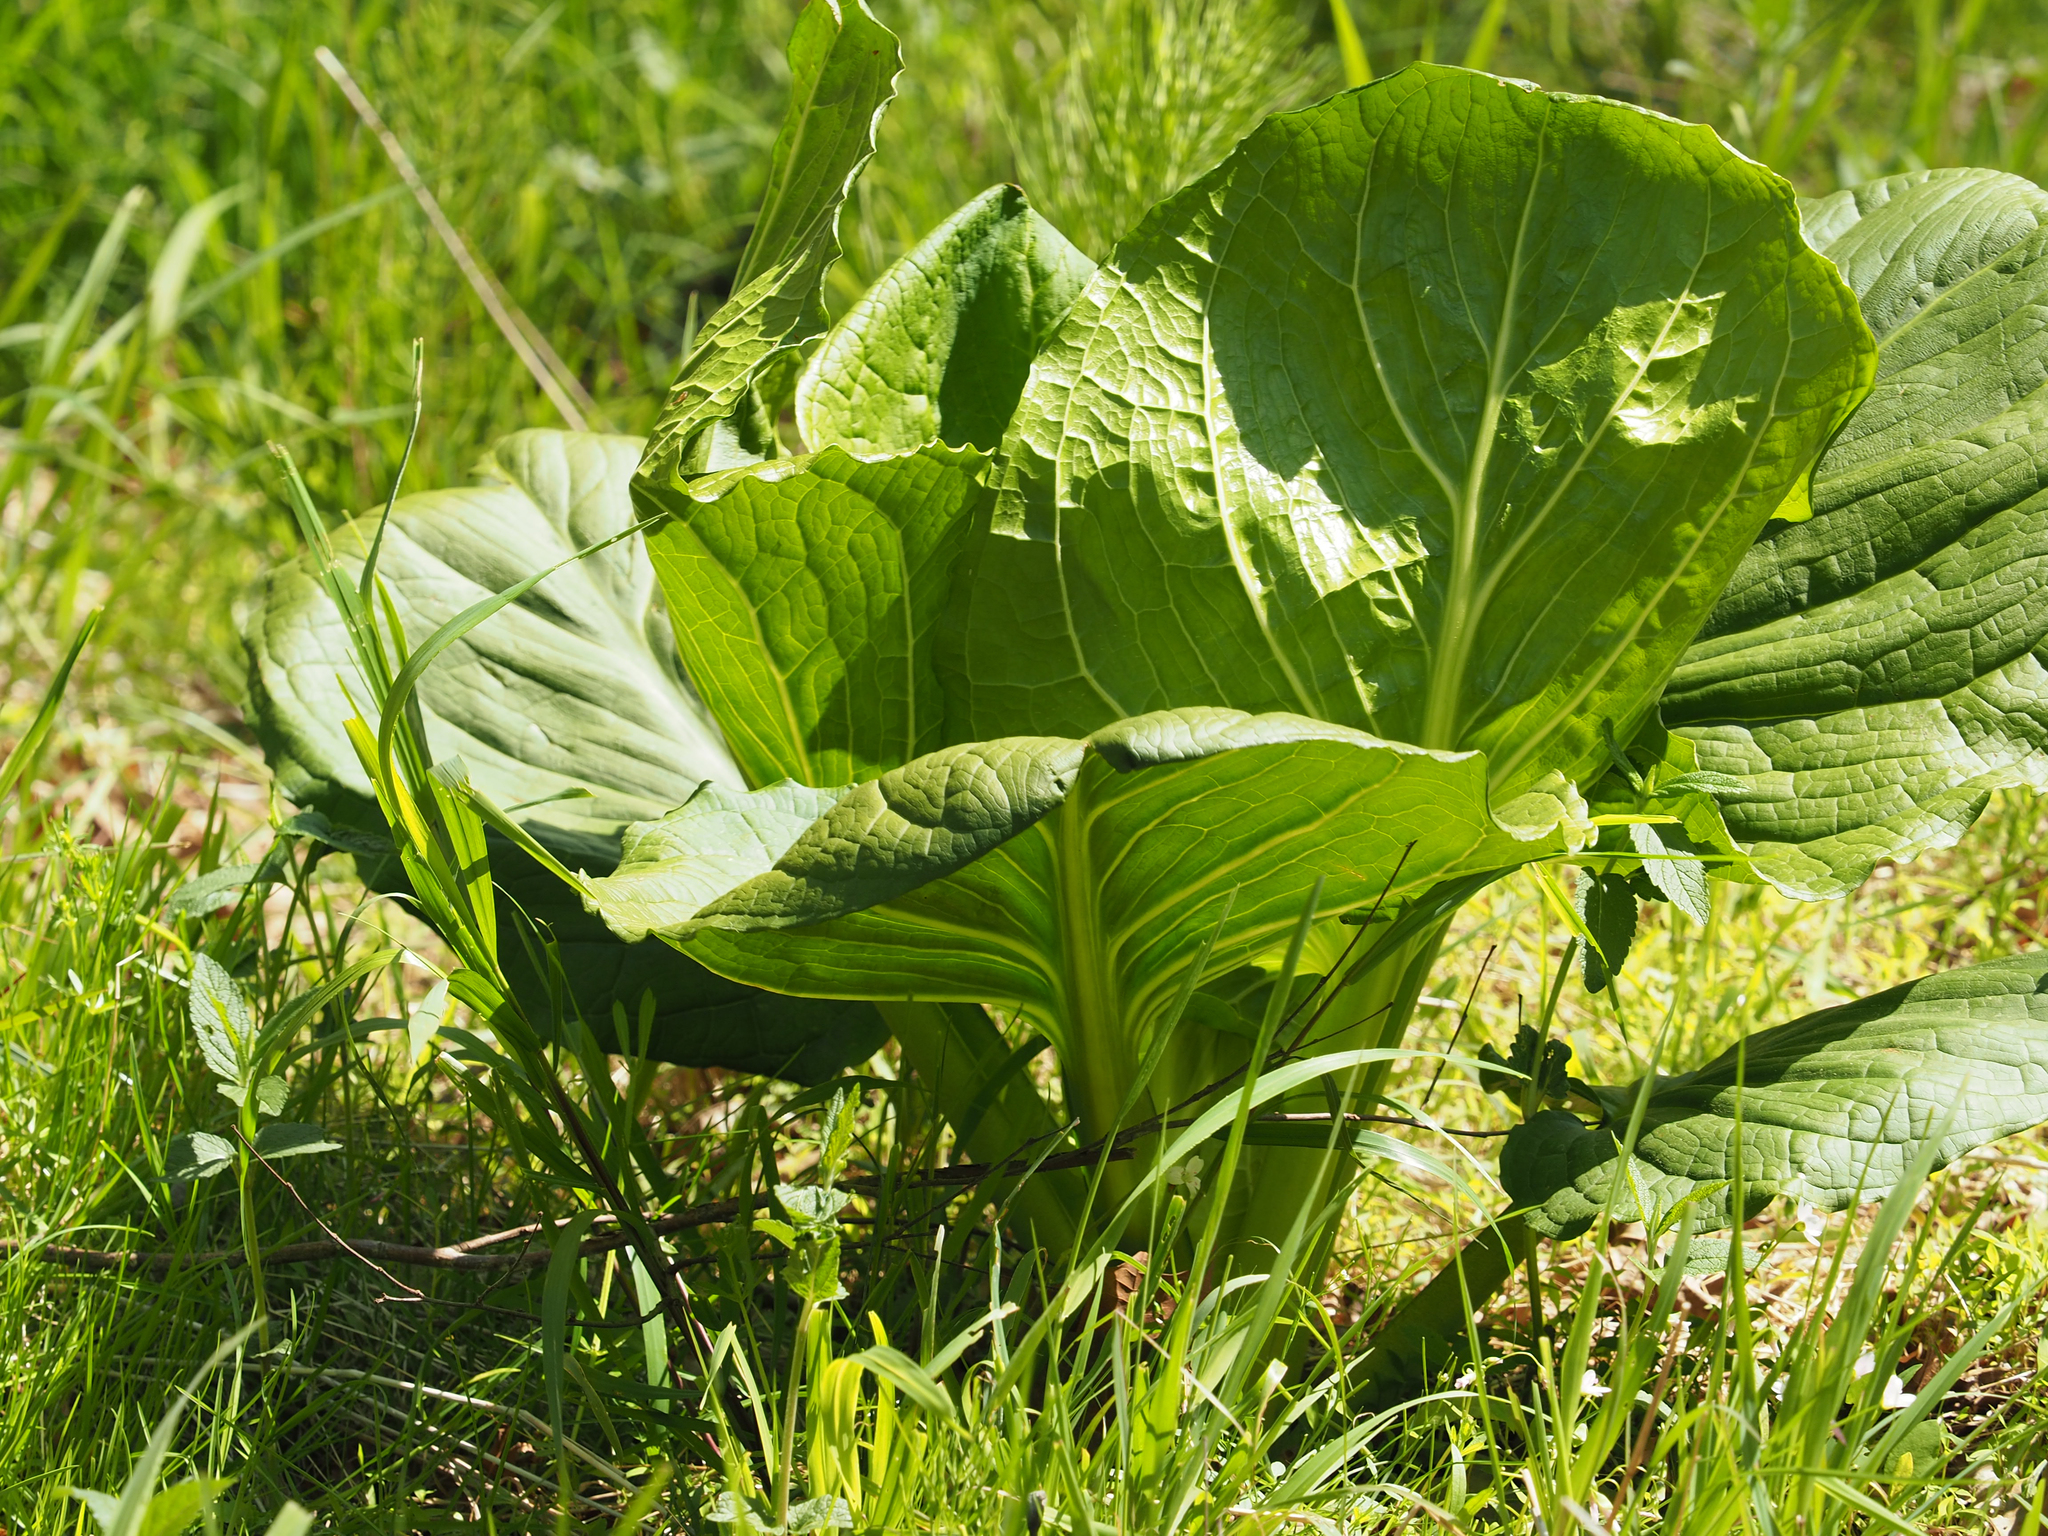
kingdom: Plantae
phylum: Tracheophyta
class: Liliopsida
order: Alismatales
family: Araceae
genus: Symplocarpus
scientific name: Symplocarpus foetidus
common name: Eastern skunk cabbage
